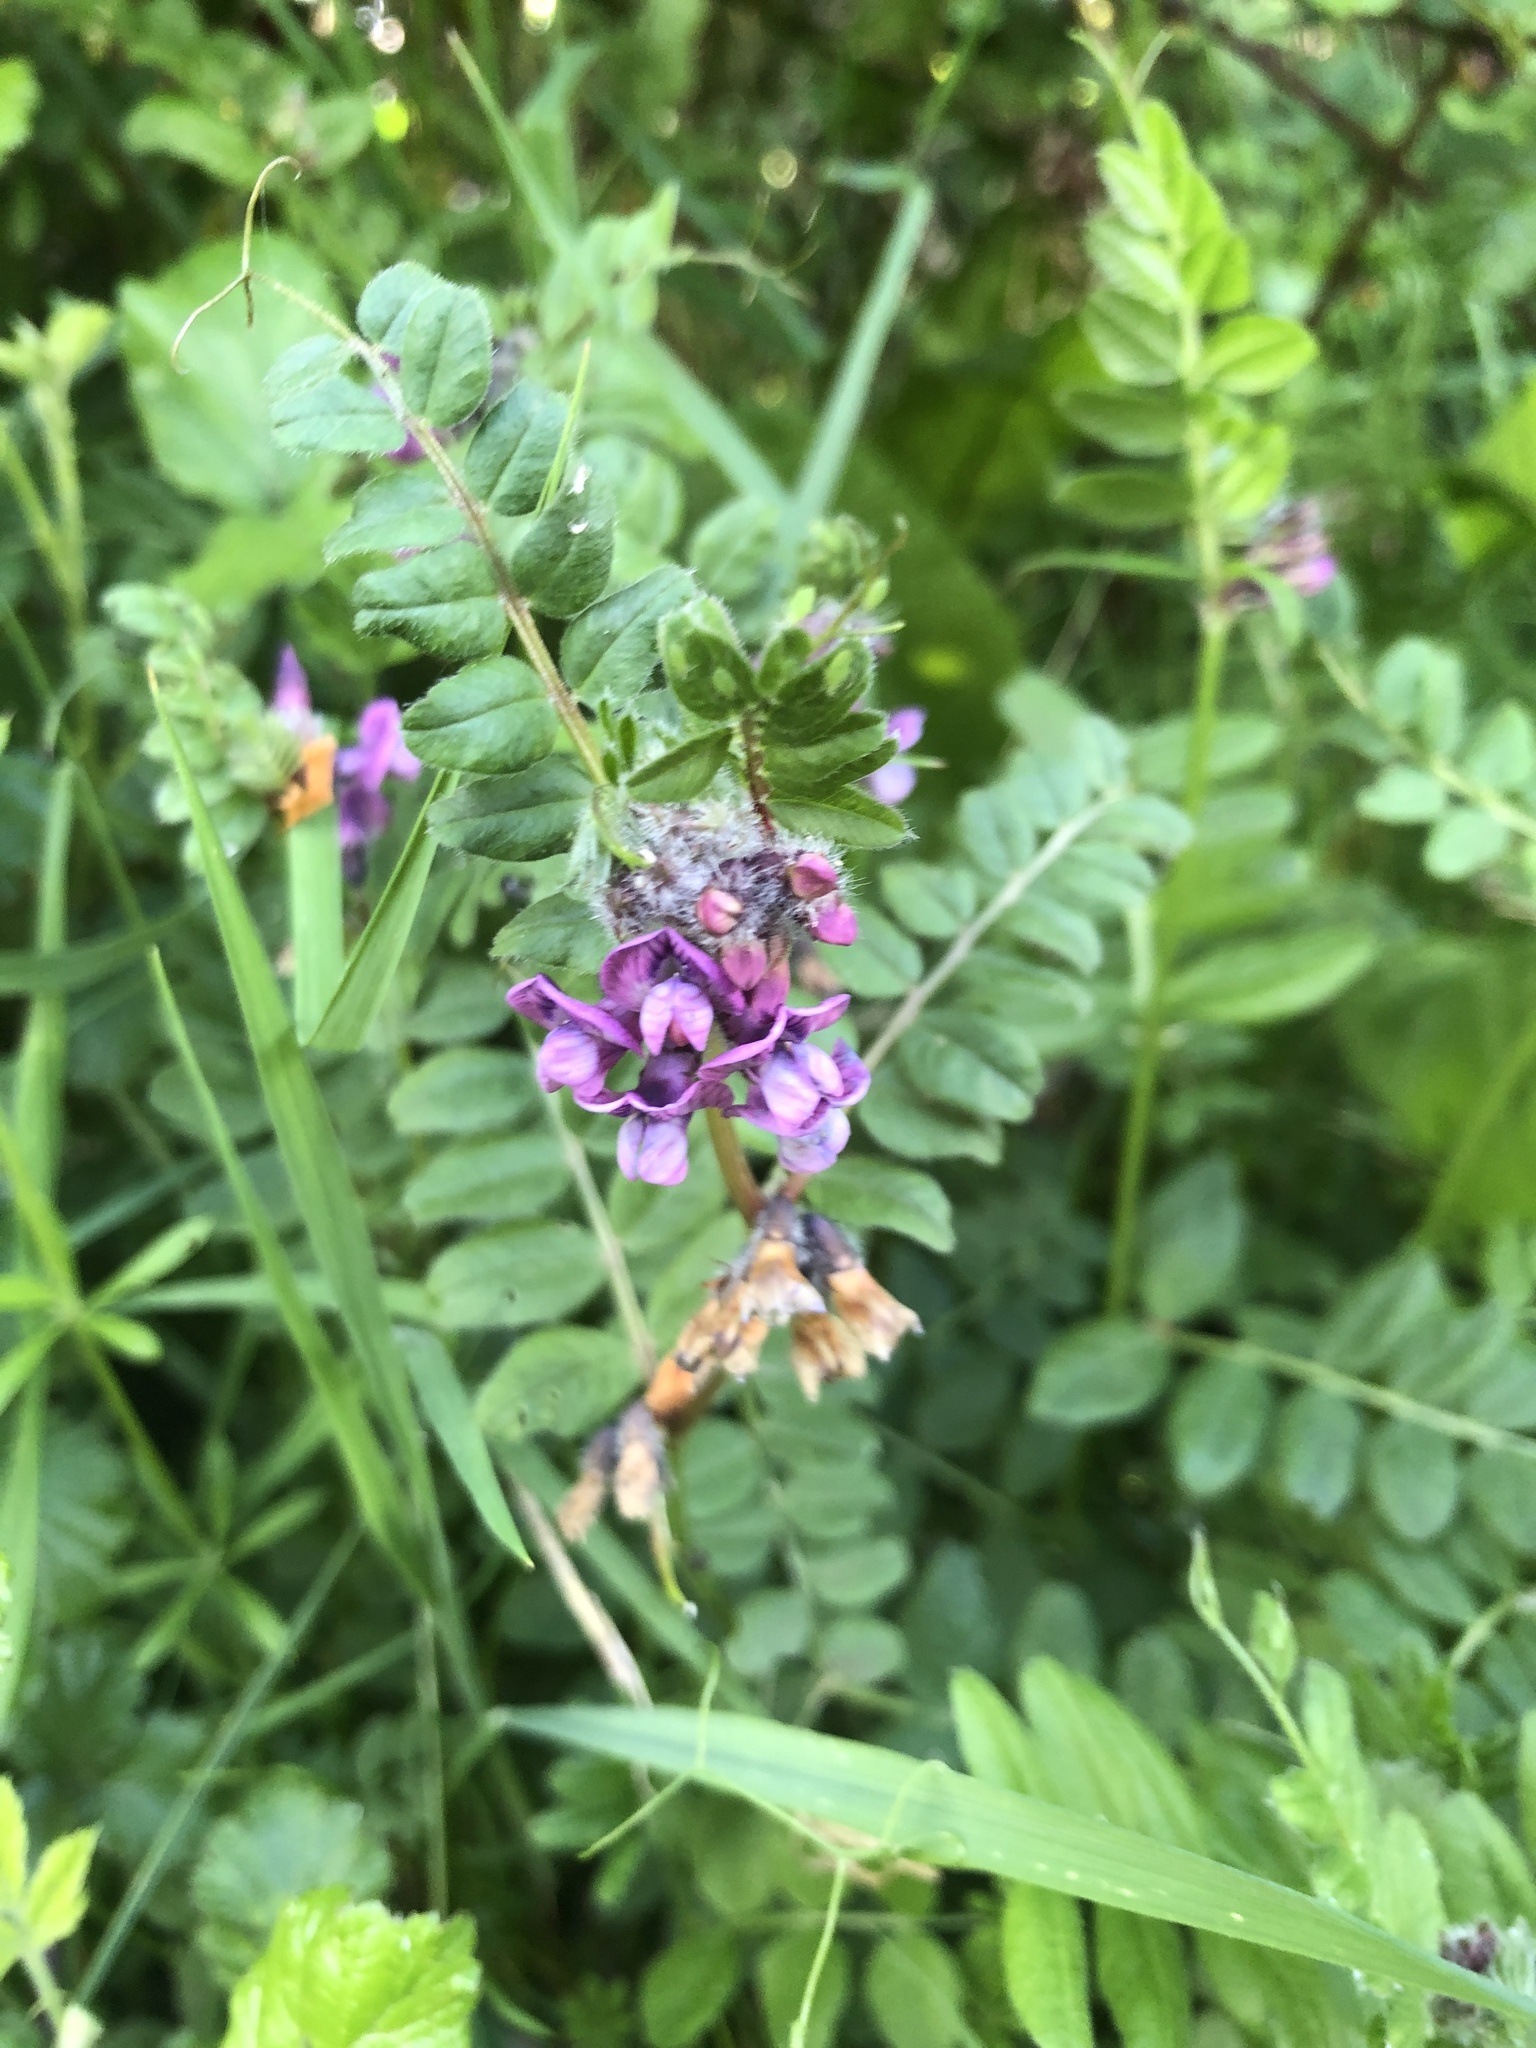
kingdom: Plantae
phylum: Tracheophyta
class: Magnoliopsida
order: Fabales
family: Fabaceae
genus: Vicia
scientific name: Vicia sepium
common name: Bush vetch
